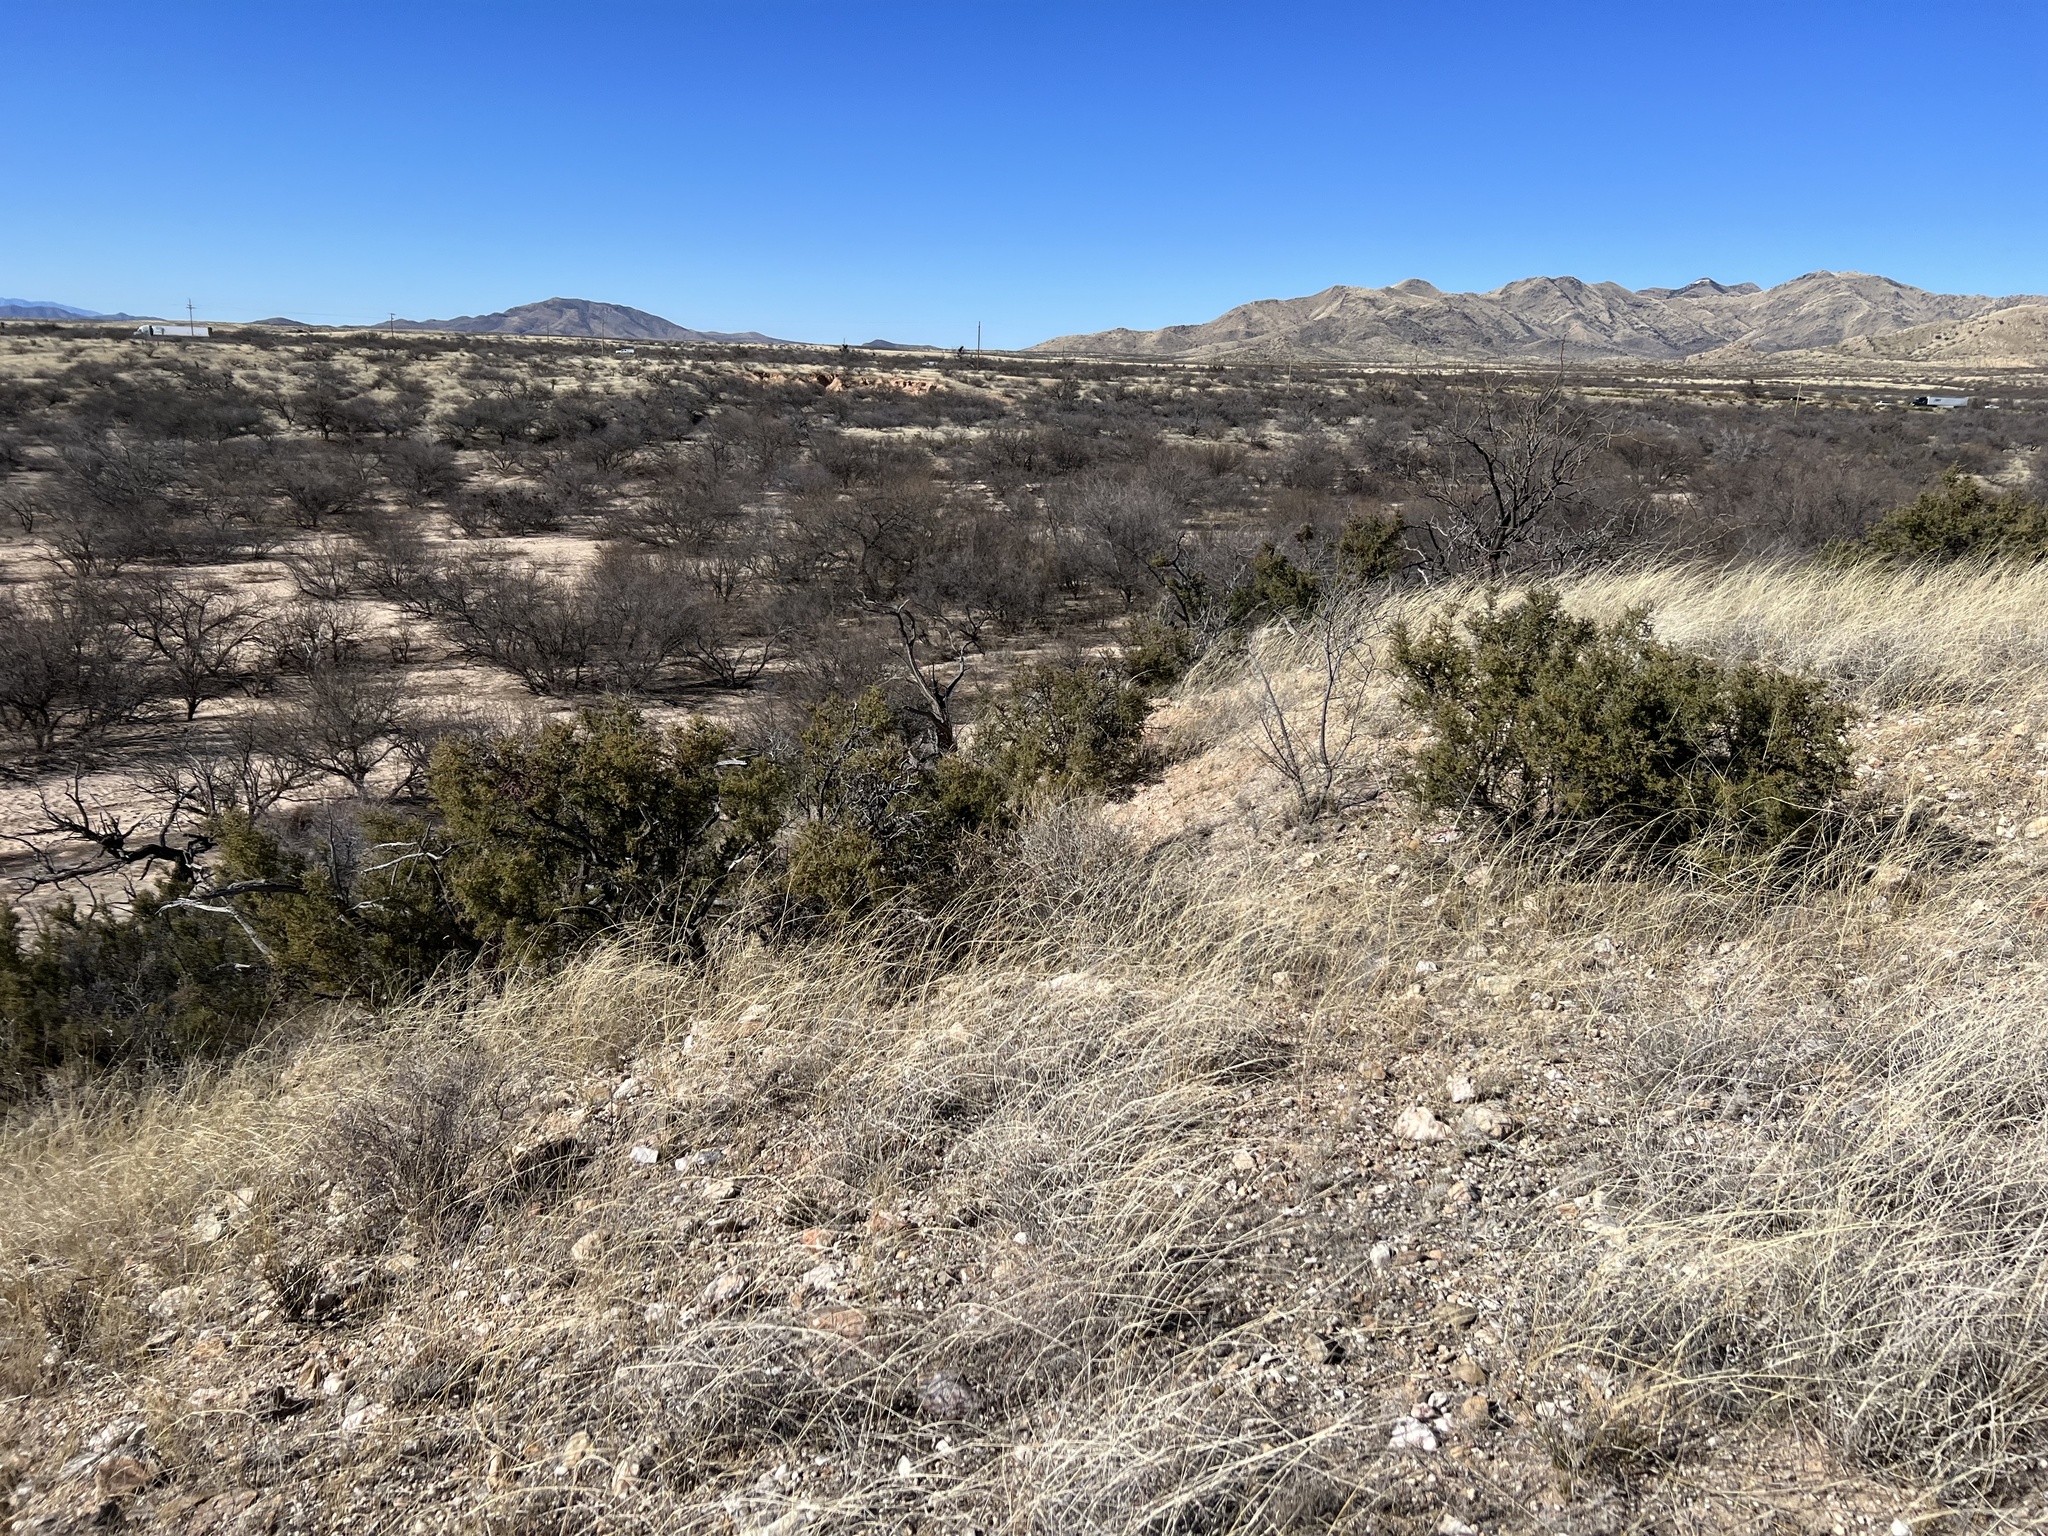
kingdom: Plantae
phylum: Tracheophyta
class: Magnoliopsida
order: Rosales
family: Rhamnaceae
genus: Condalia
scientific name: Condalia warnockii
